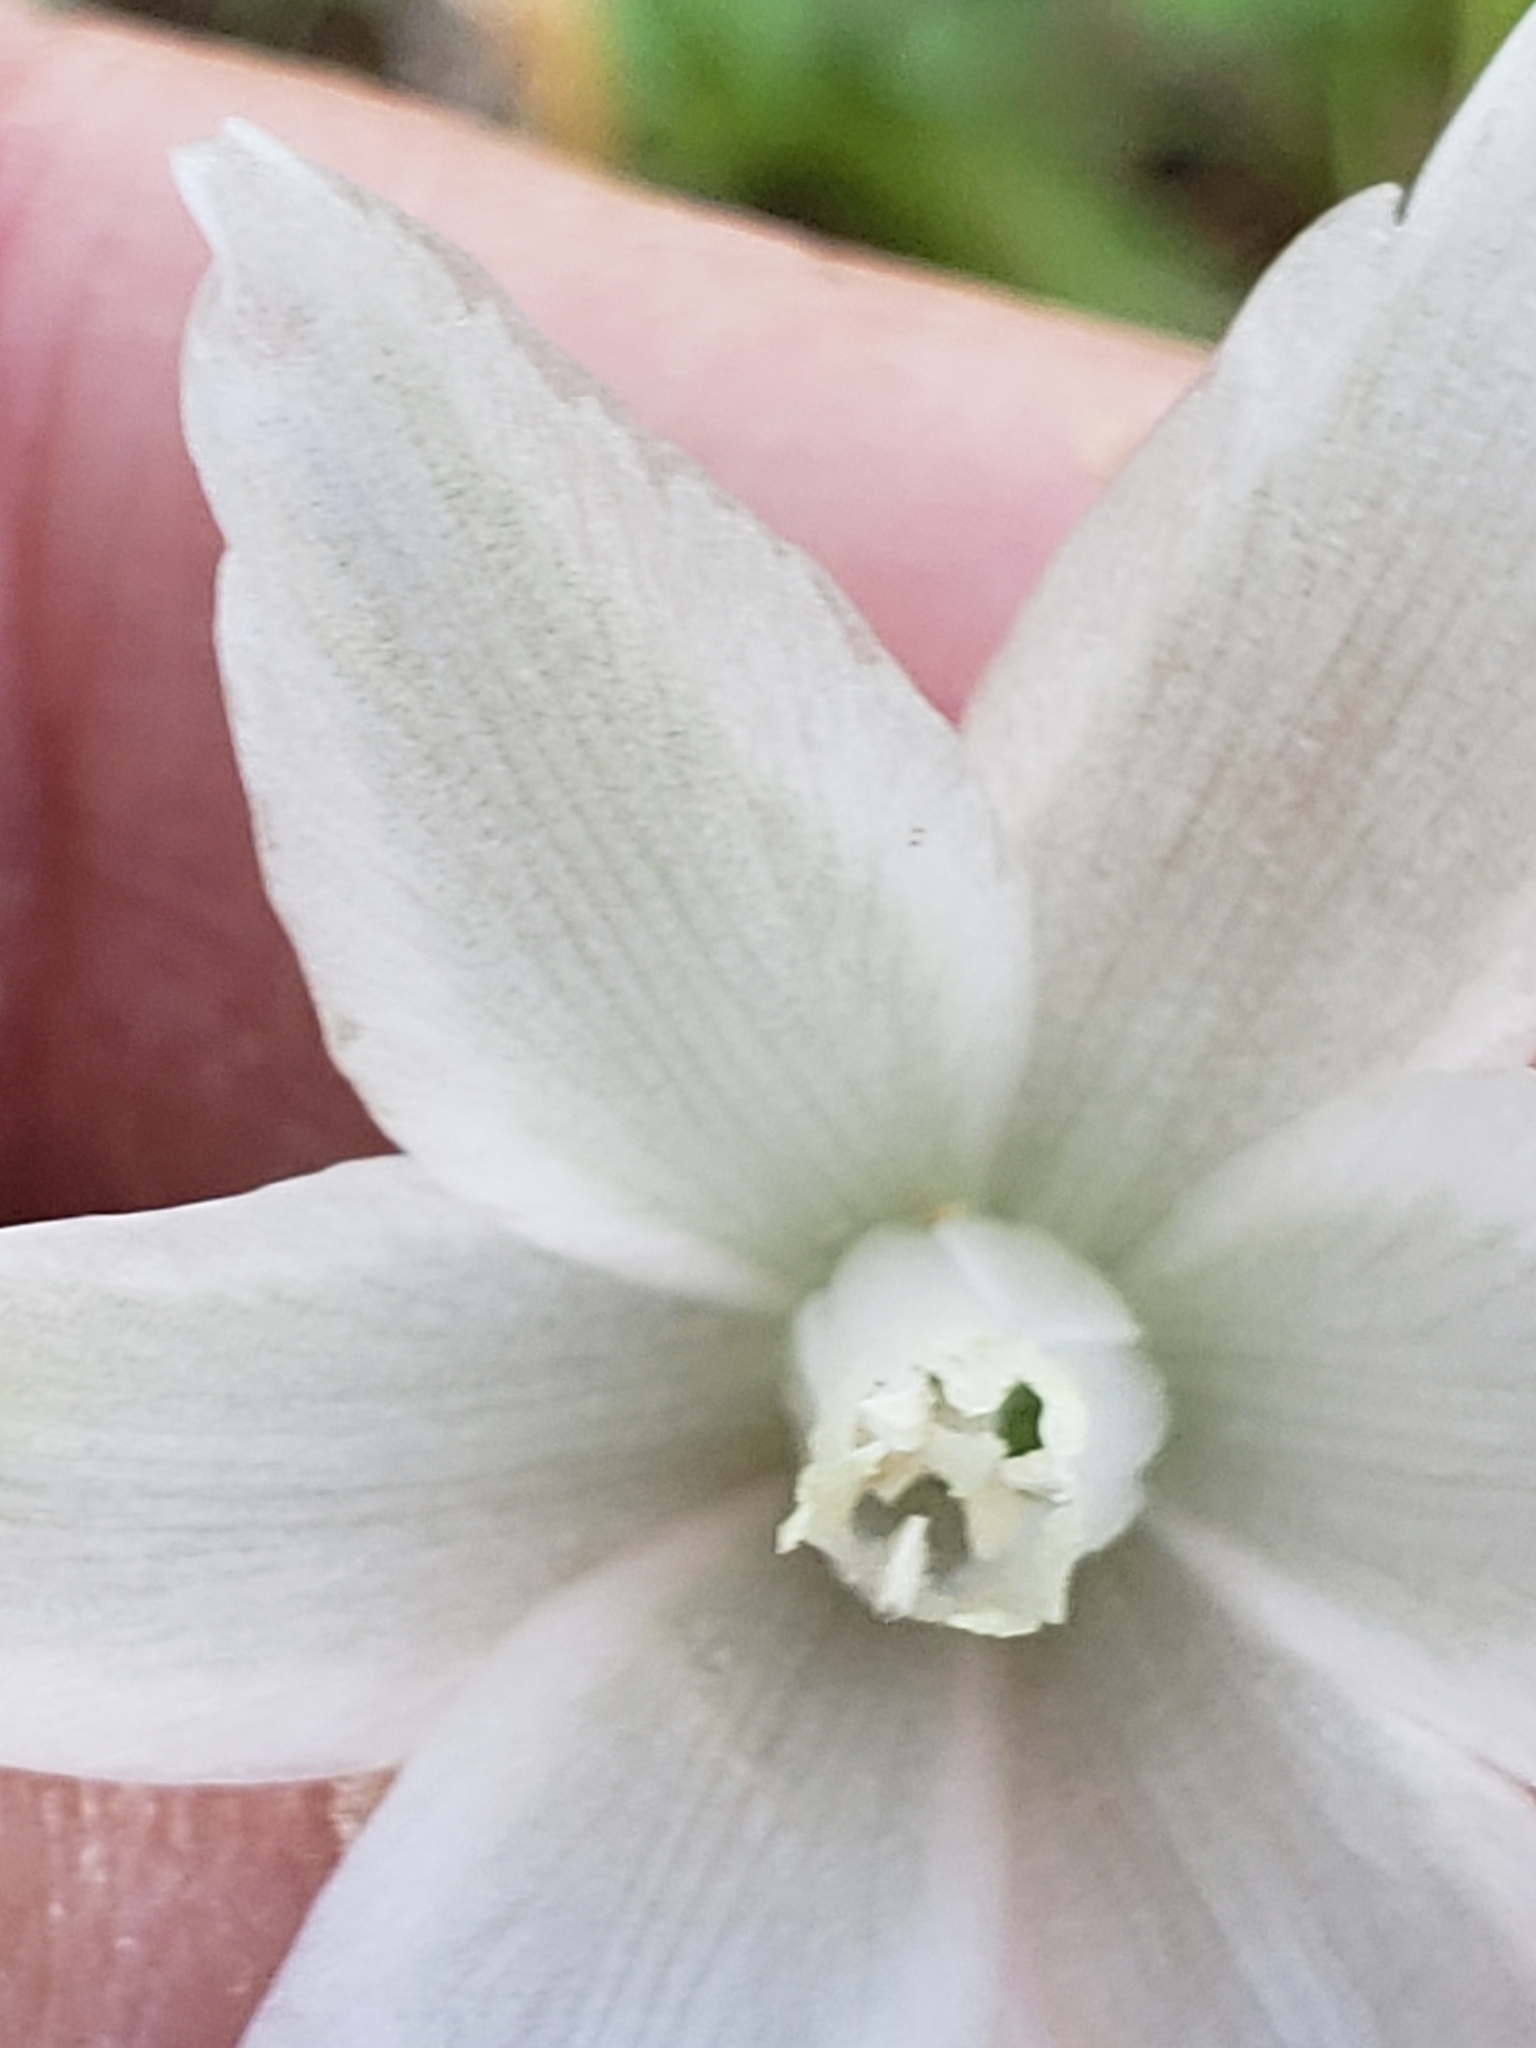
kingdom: Plantae
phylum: Tracheophyta
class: Liliopsida
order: Asparagales
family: Asparagaceae
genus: Ornithogalum
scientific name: Ornithogalum nutans
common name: Drooping star-of-bethlehem
